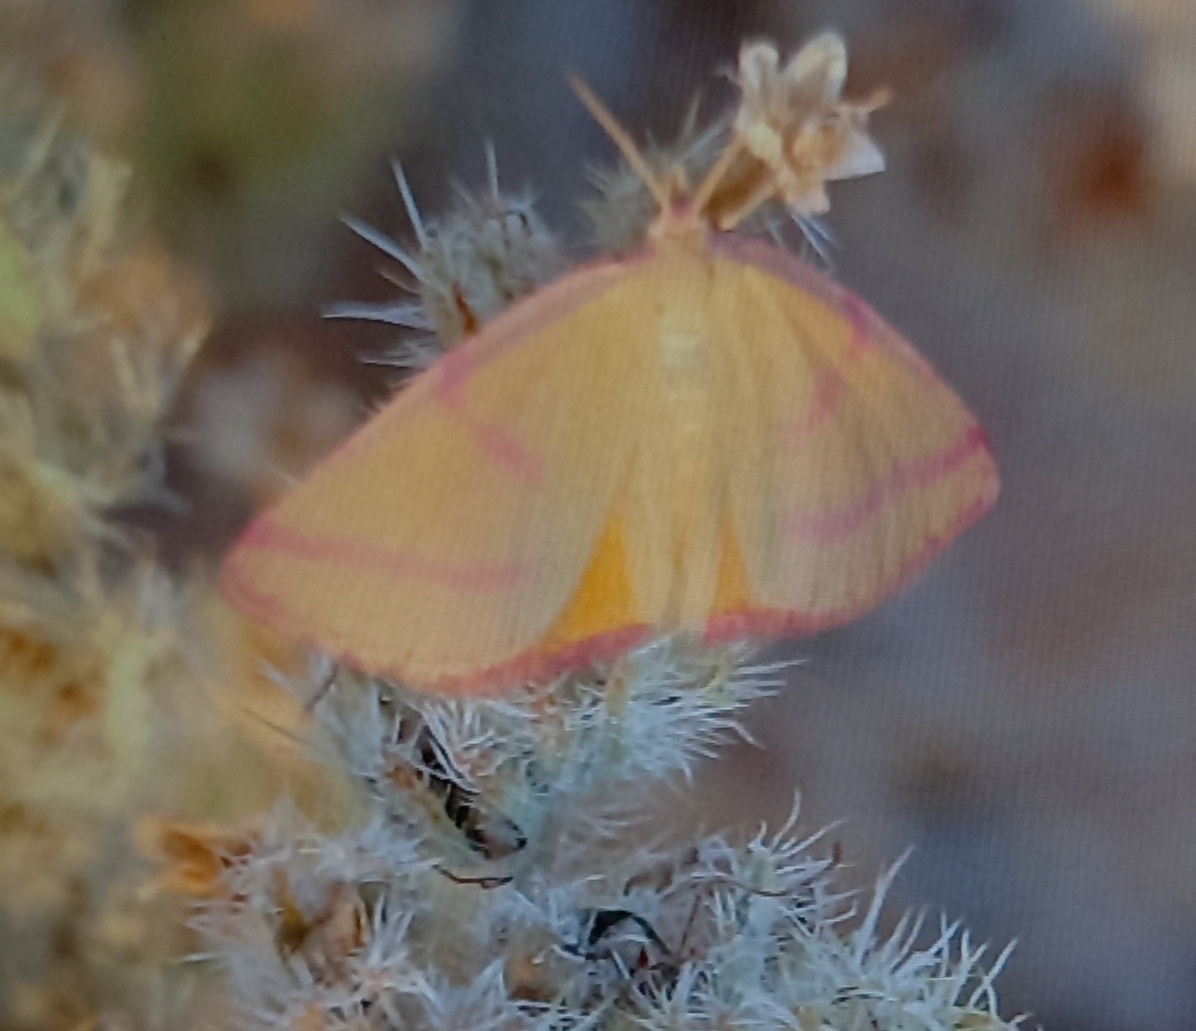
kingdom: Animalia
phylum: Arthropoda
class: Insecta
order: Lepidoptera
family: Geometridae
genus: Lythria
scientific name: Lythria purpuraria
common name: Purple-barred yellow
